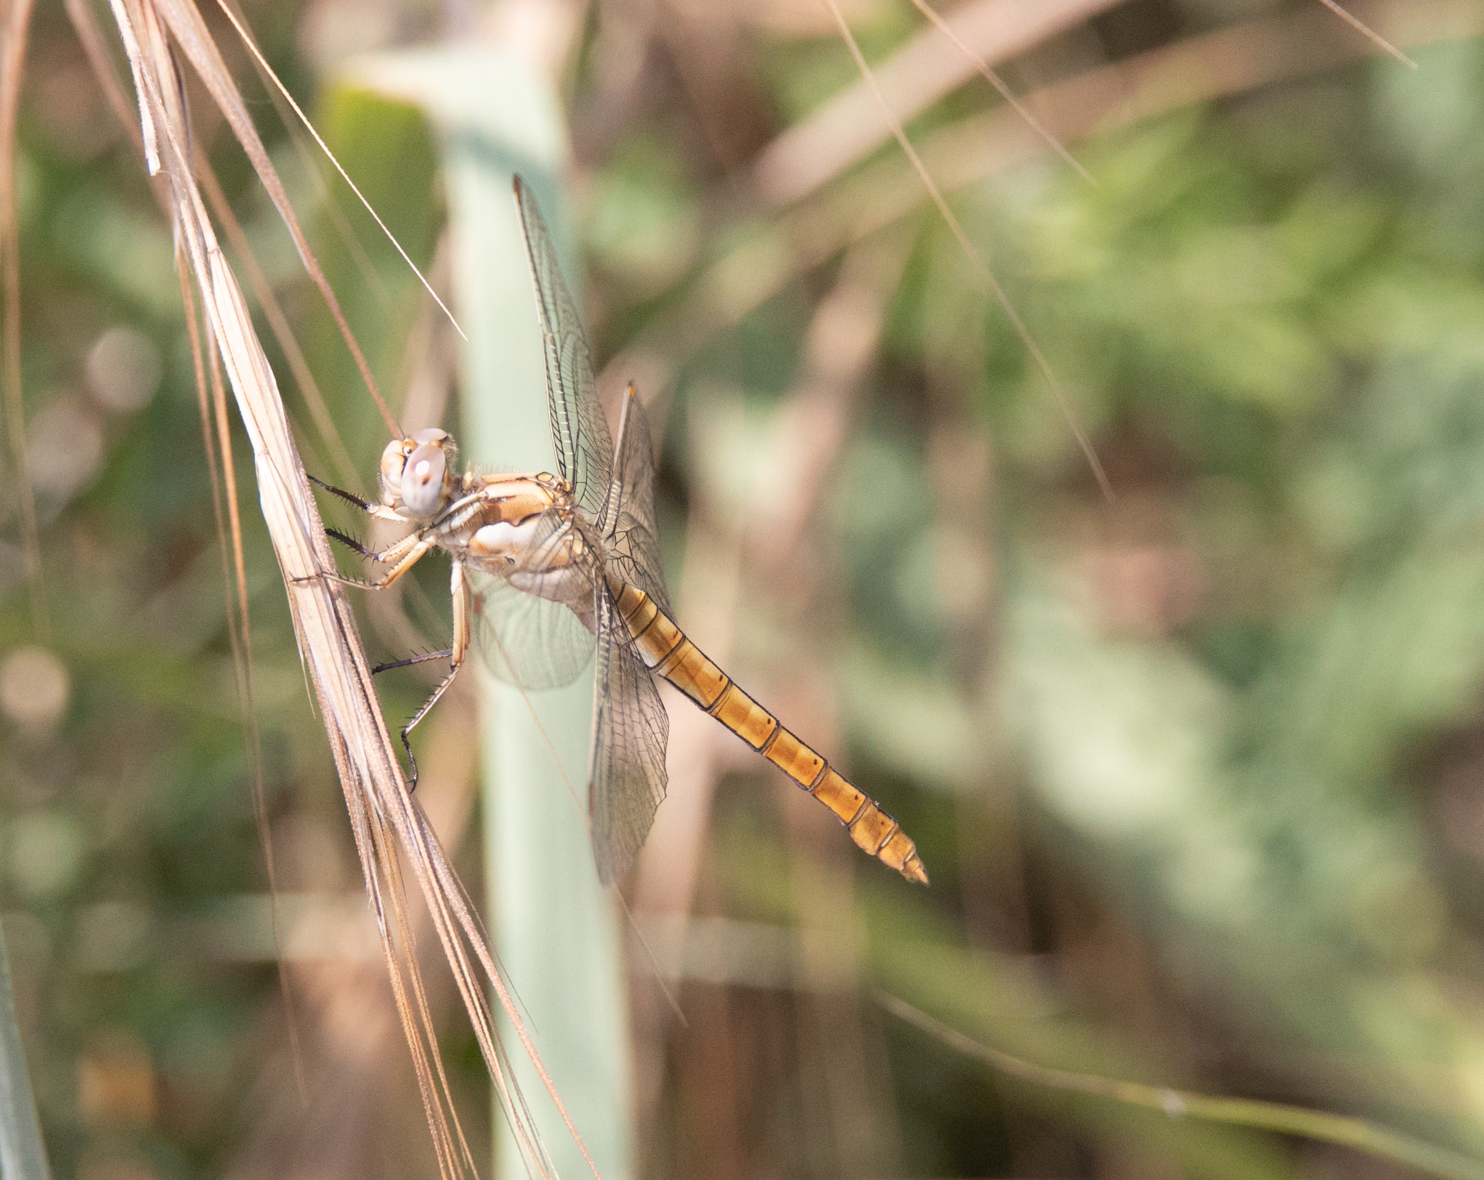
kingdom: Animalia
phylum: Arthropoda
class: Insecta
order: Odonata
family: Libellulidae
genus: Orthetrum
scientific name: Orthetrum brunneum
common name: Southern skimmer
